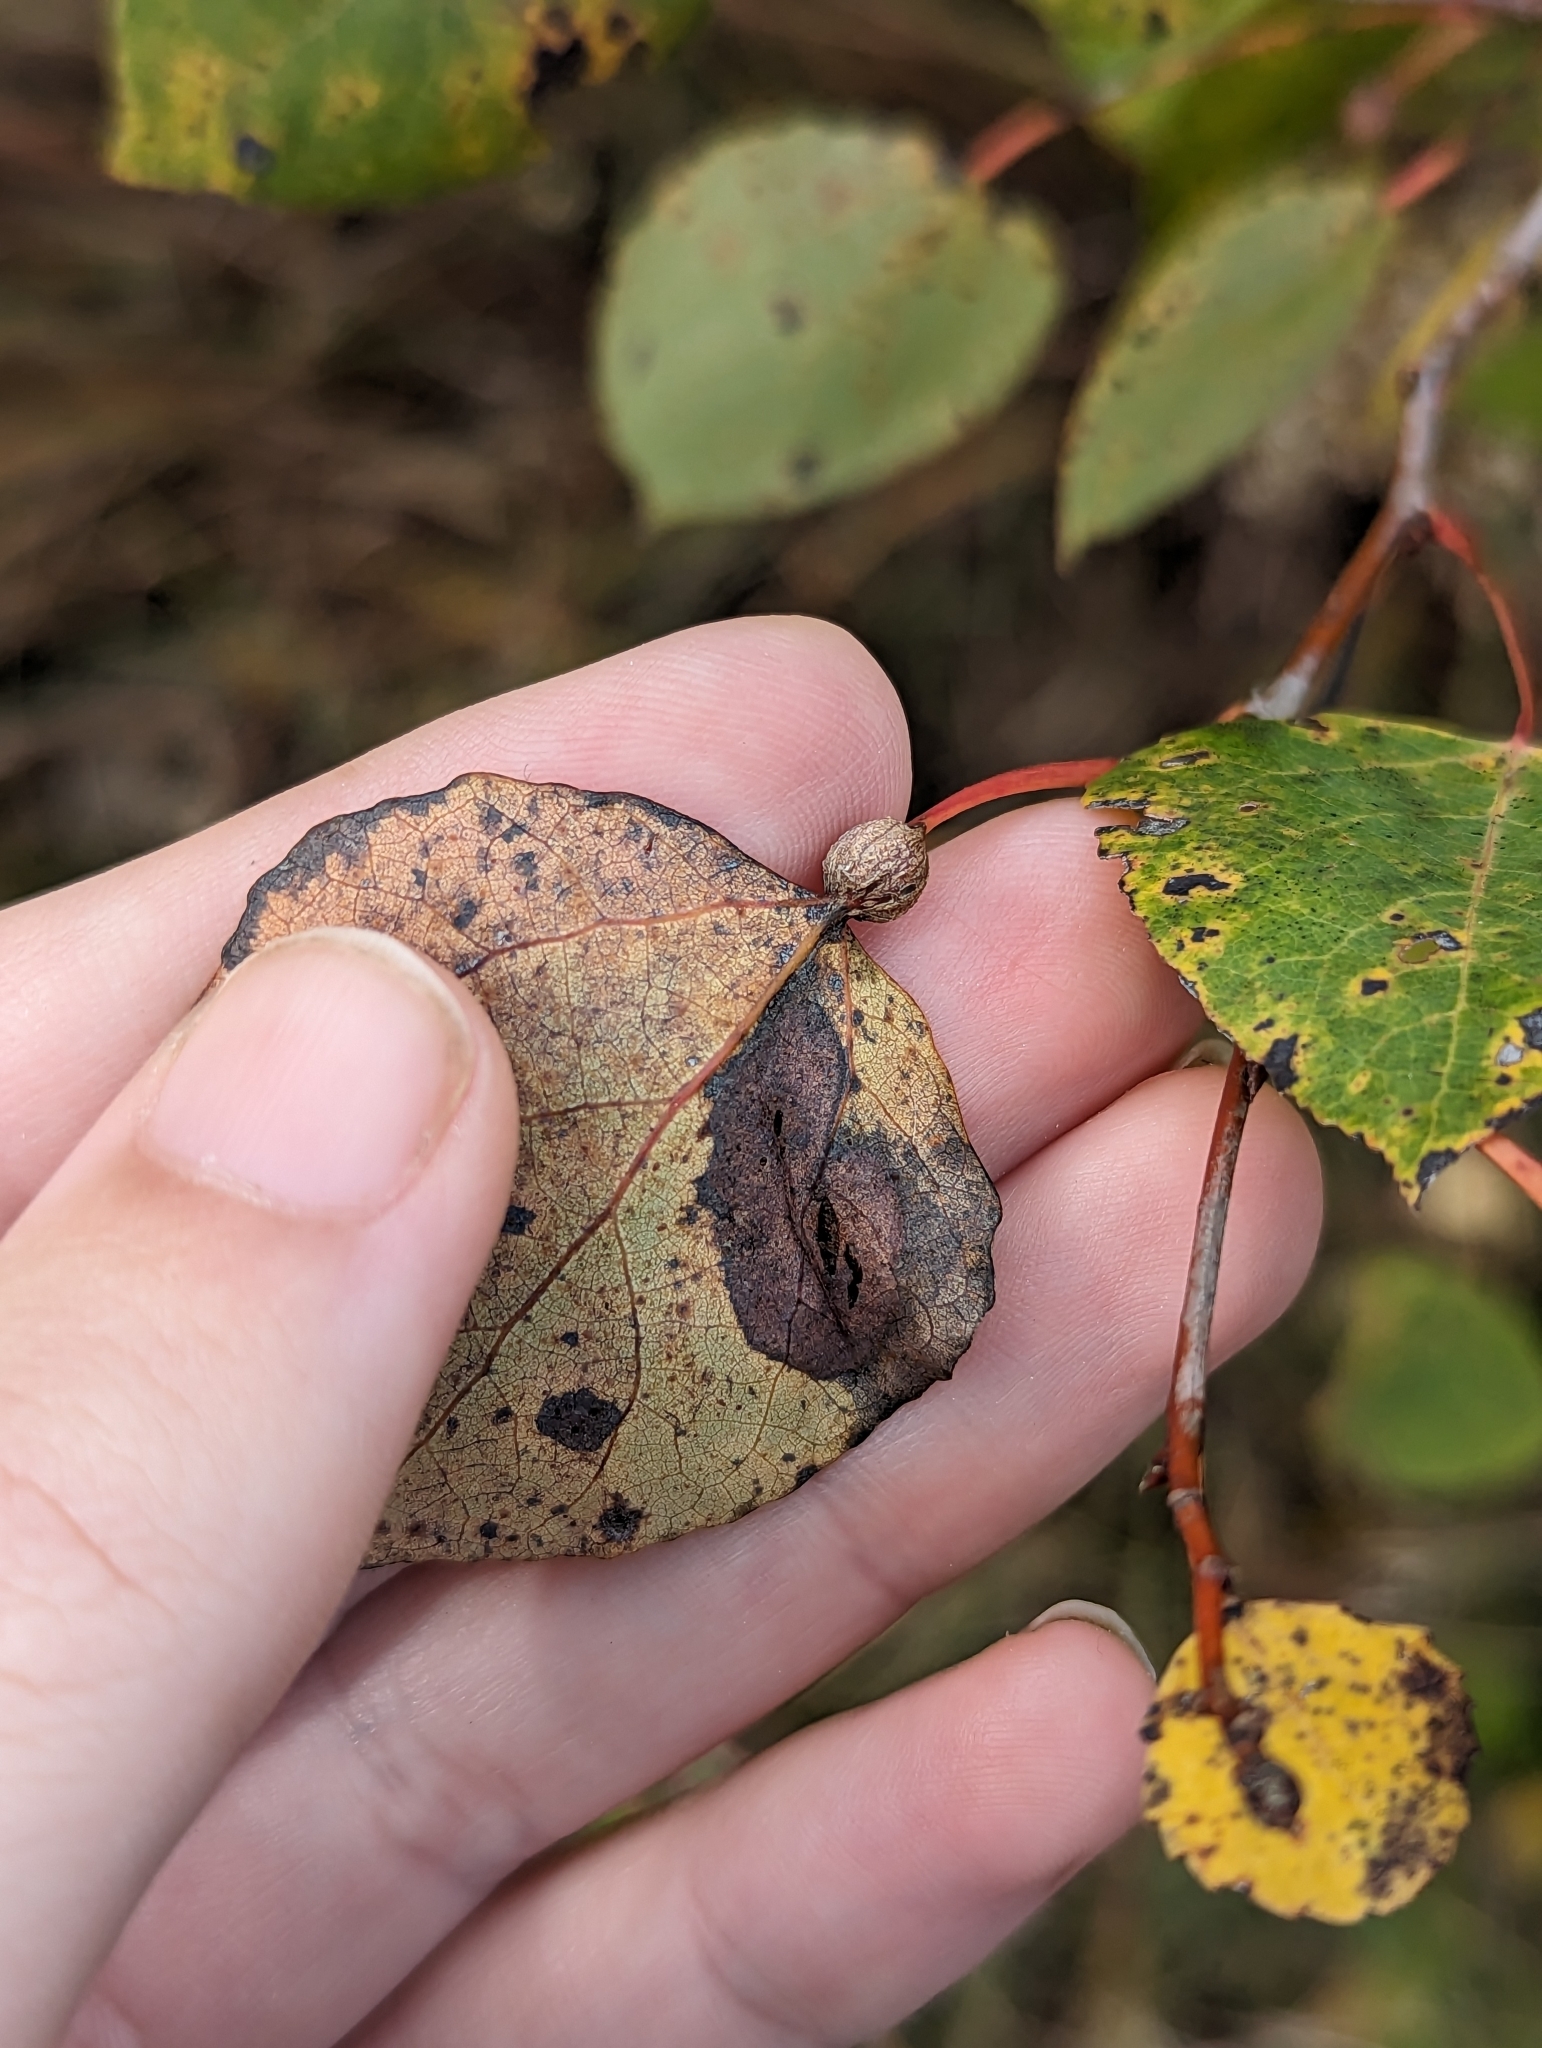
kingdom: Animalia
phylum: Arthropoda
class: Insecta
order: Lepidoptera
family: Nepticulidae
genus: Ectoedemia
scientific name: Ectoedemia populella
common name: Aspen petiole gall moth
